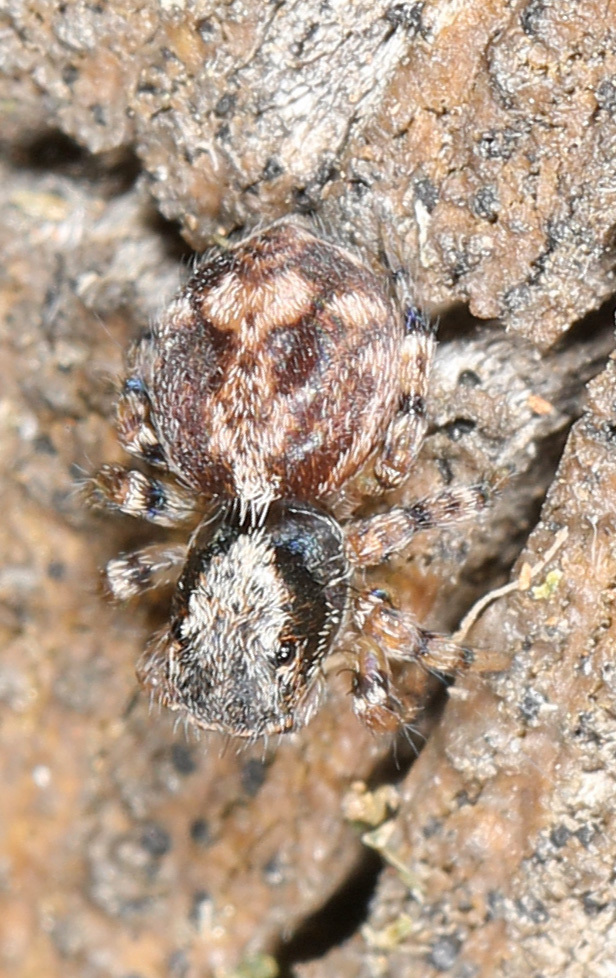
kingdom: Animalia
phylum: Arthropoda
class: Arachnida
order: Araneae
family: Salticidae
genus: Naphrys
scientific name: Naphrys pulex
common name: Flea jumping spider
